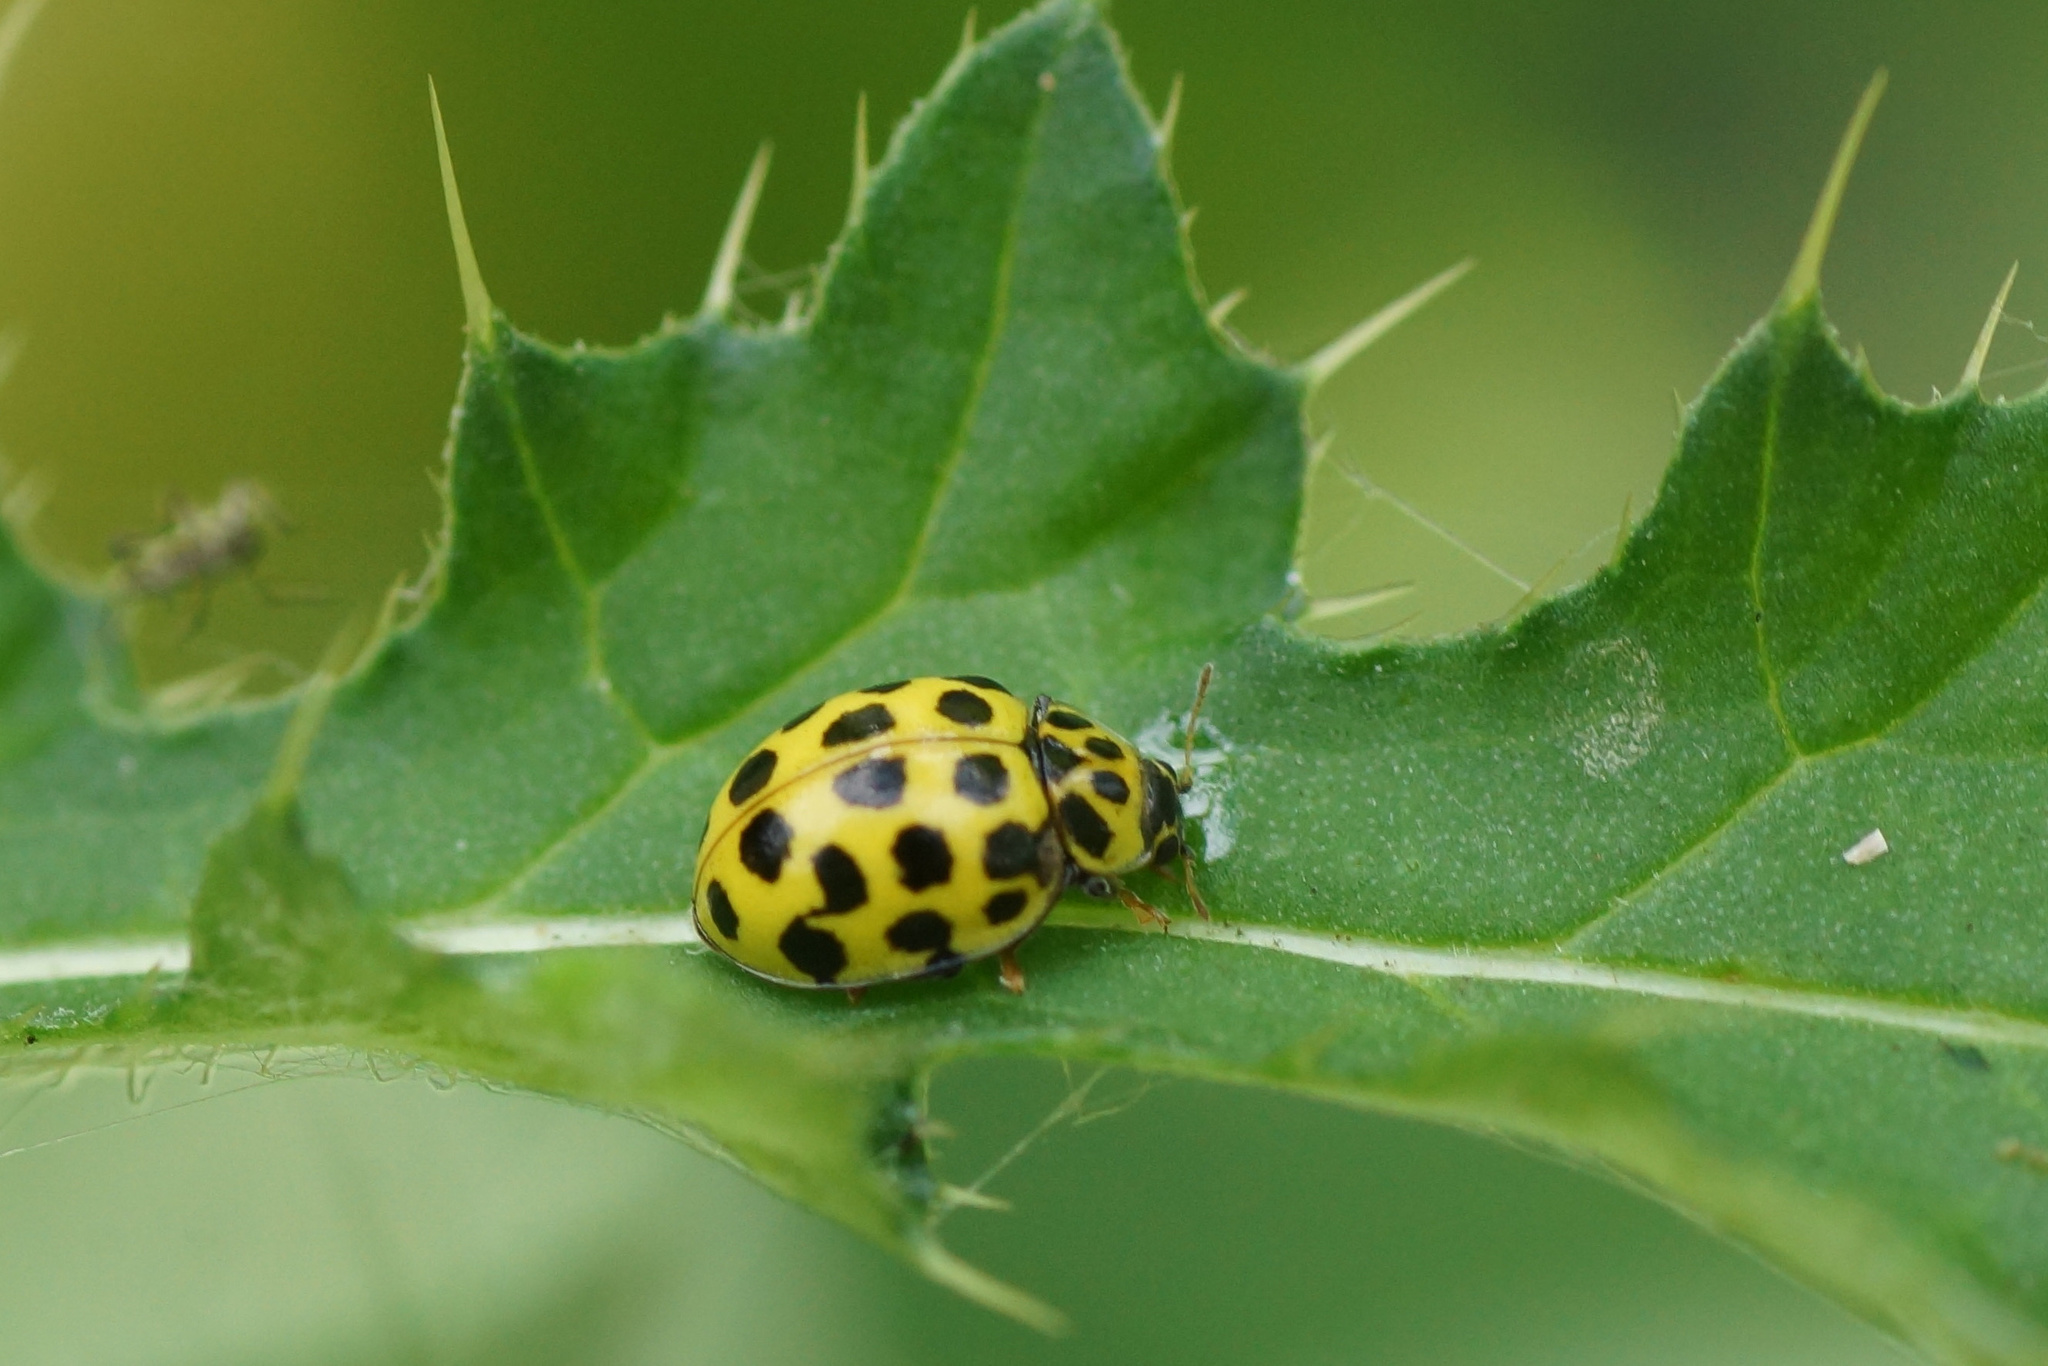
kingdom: Animalia
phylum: Arthropoda
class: Insecta
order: Coleoptera
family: Coccinellidae
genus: Psyllobora
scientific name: Psyllobora vigintiduopunctata
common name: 22-spot ladybird
